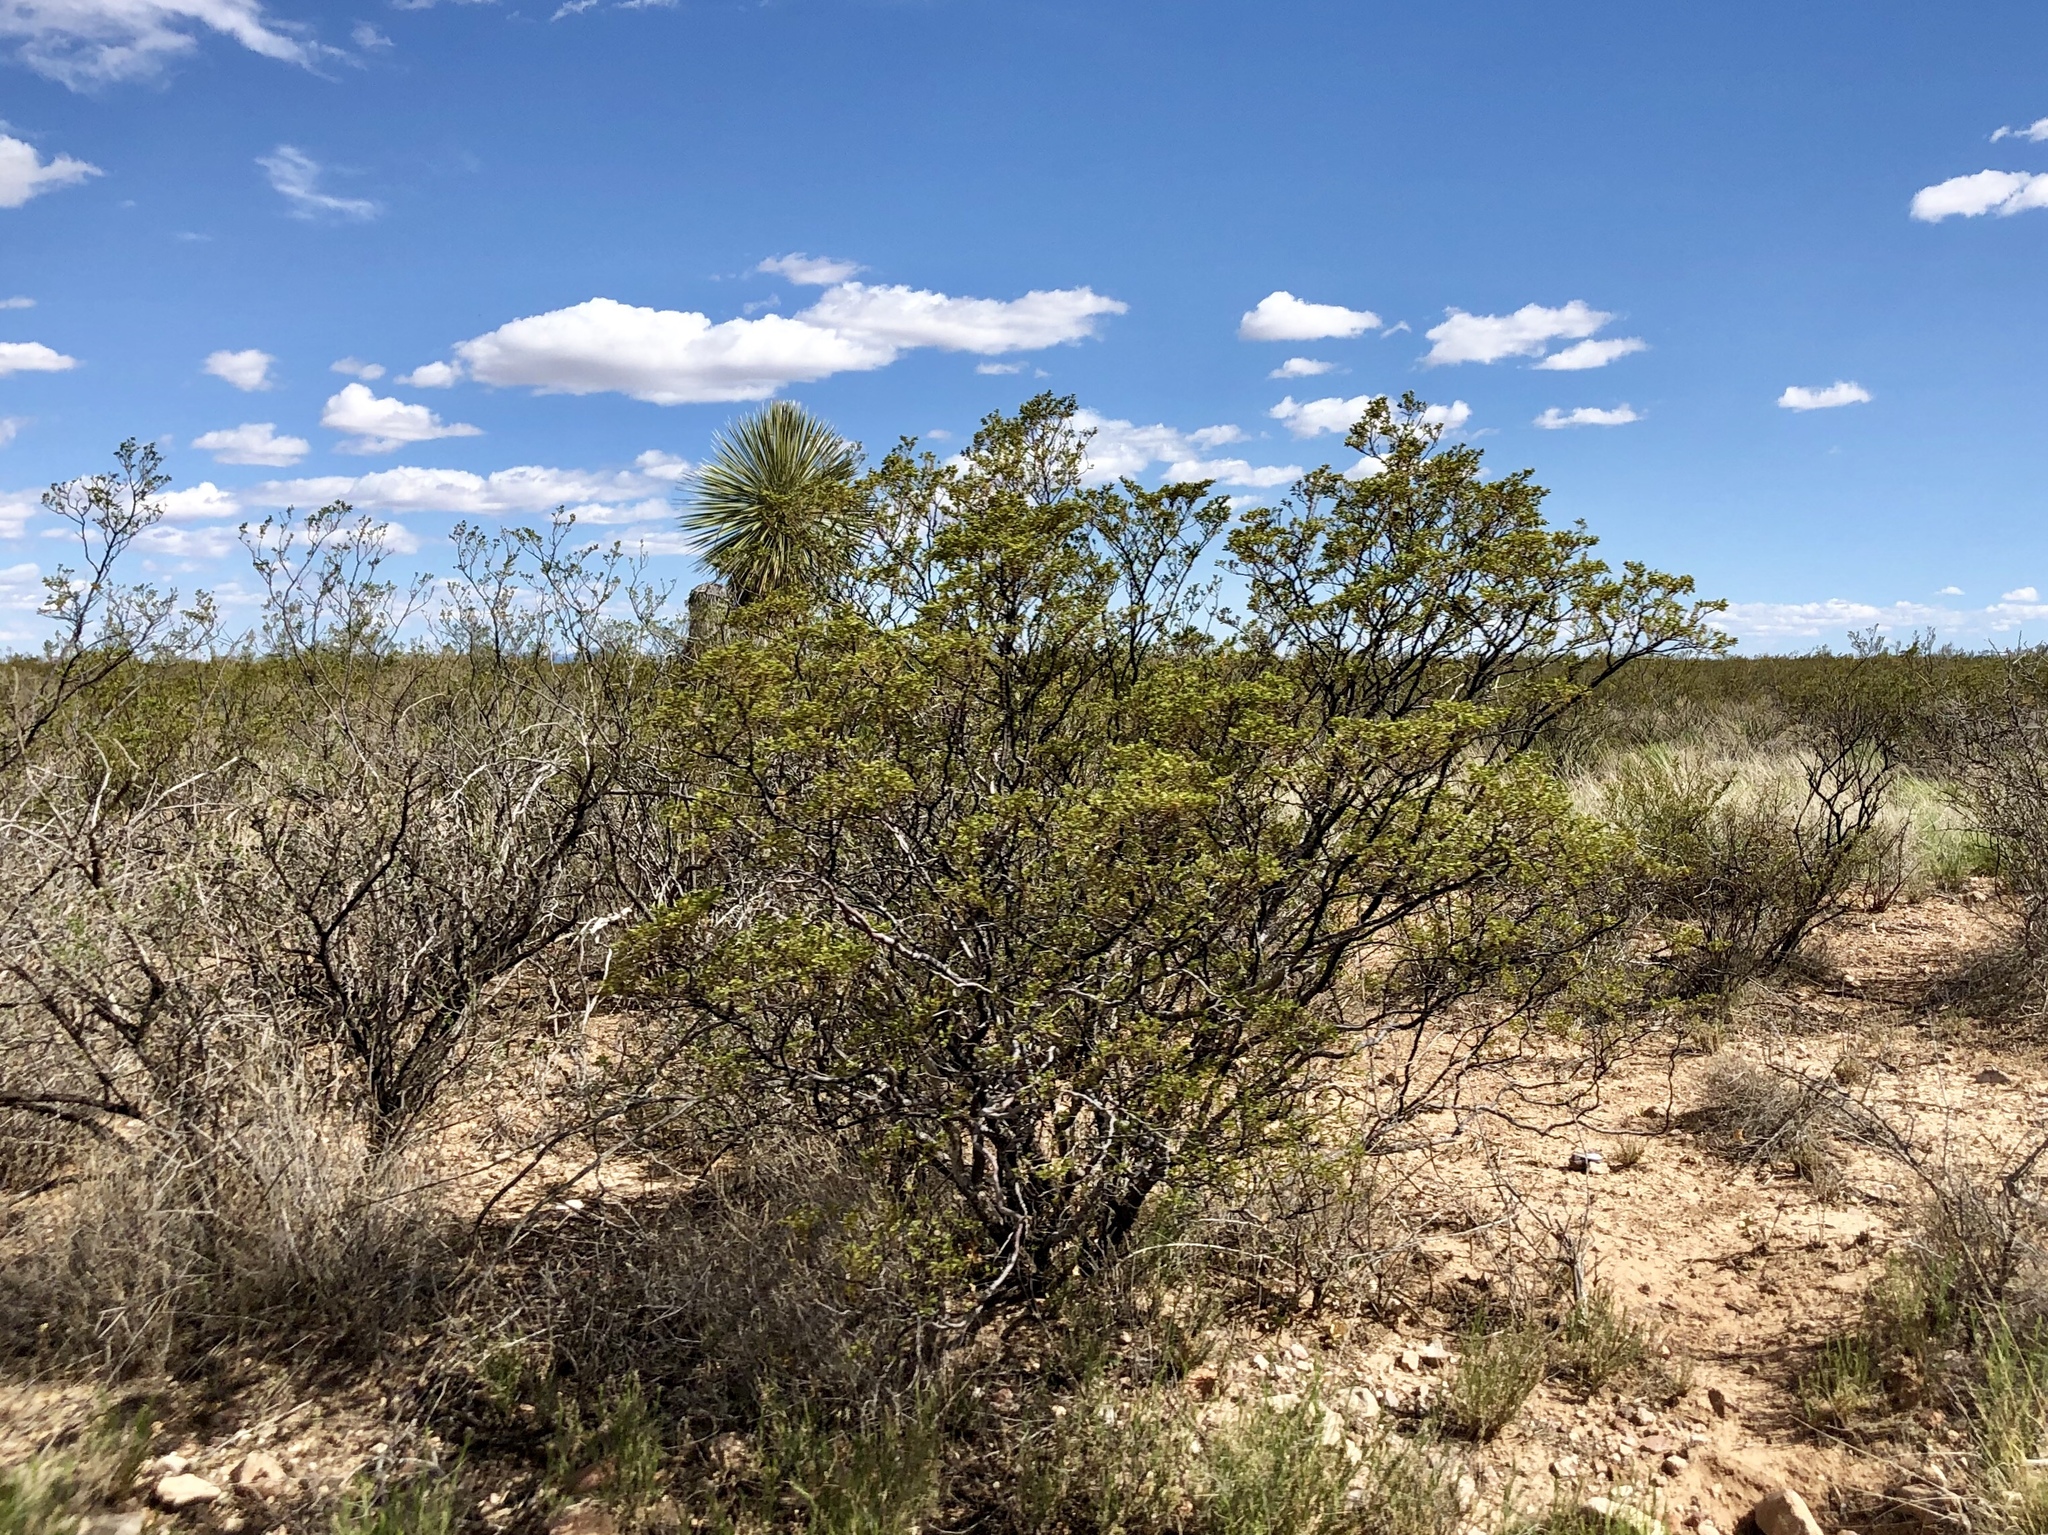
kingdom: Plantae
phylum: Tracheophyta
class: Magnoliopsida
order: Zygophyllales
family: Zygophyllaceae
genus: Larrea
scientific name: Larrea tridentata
